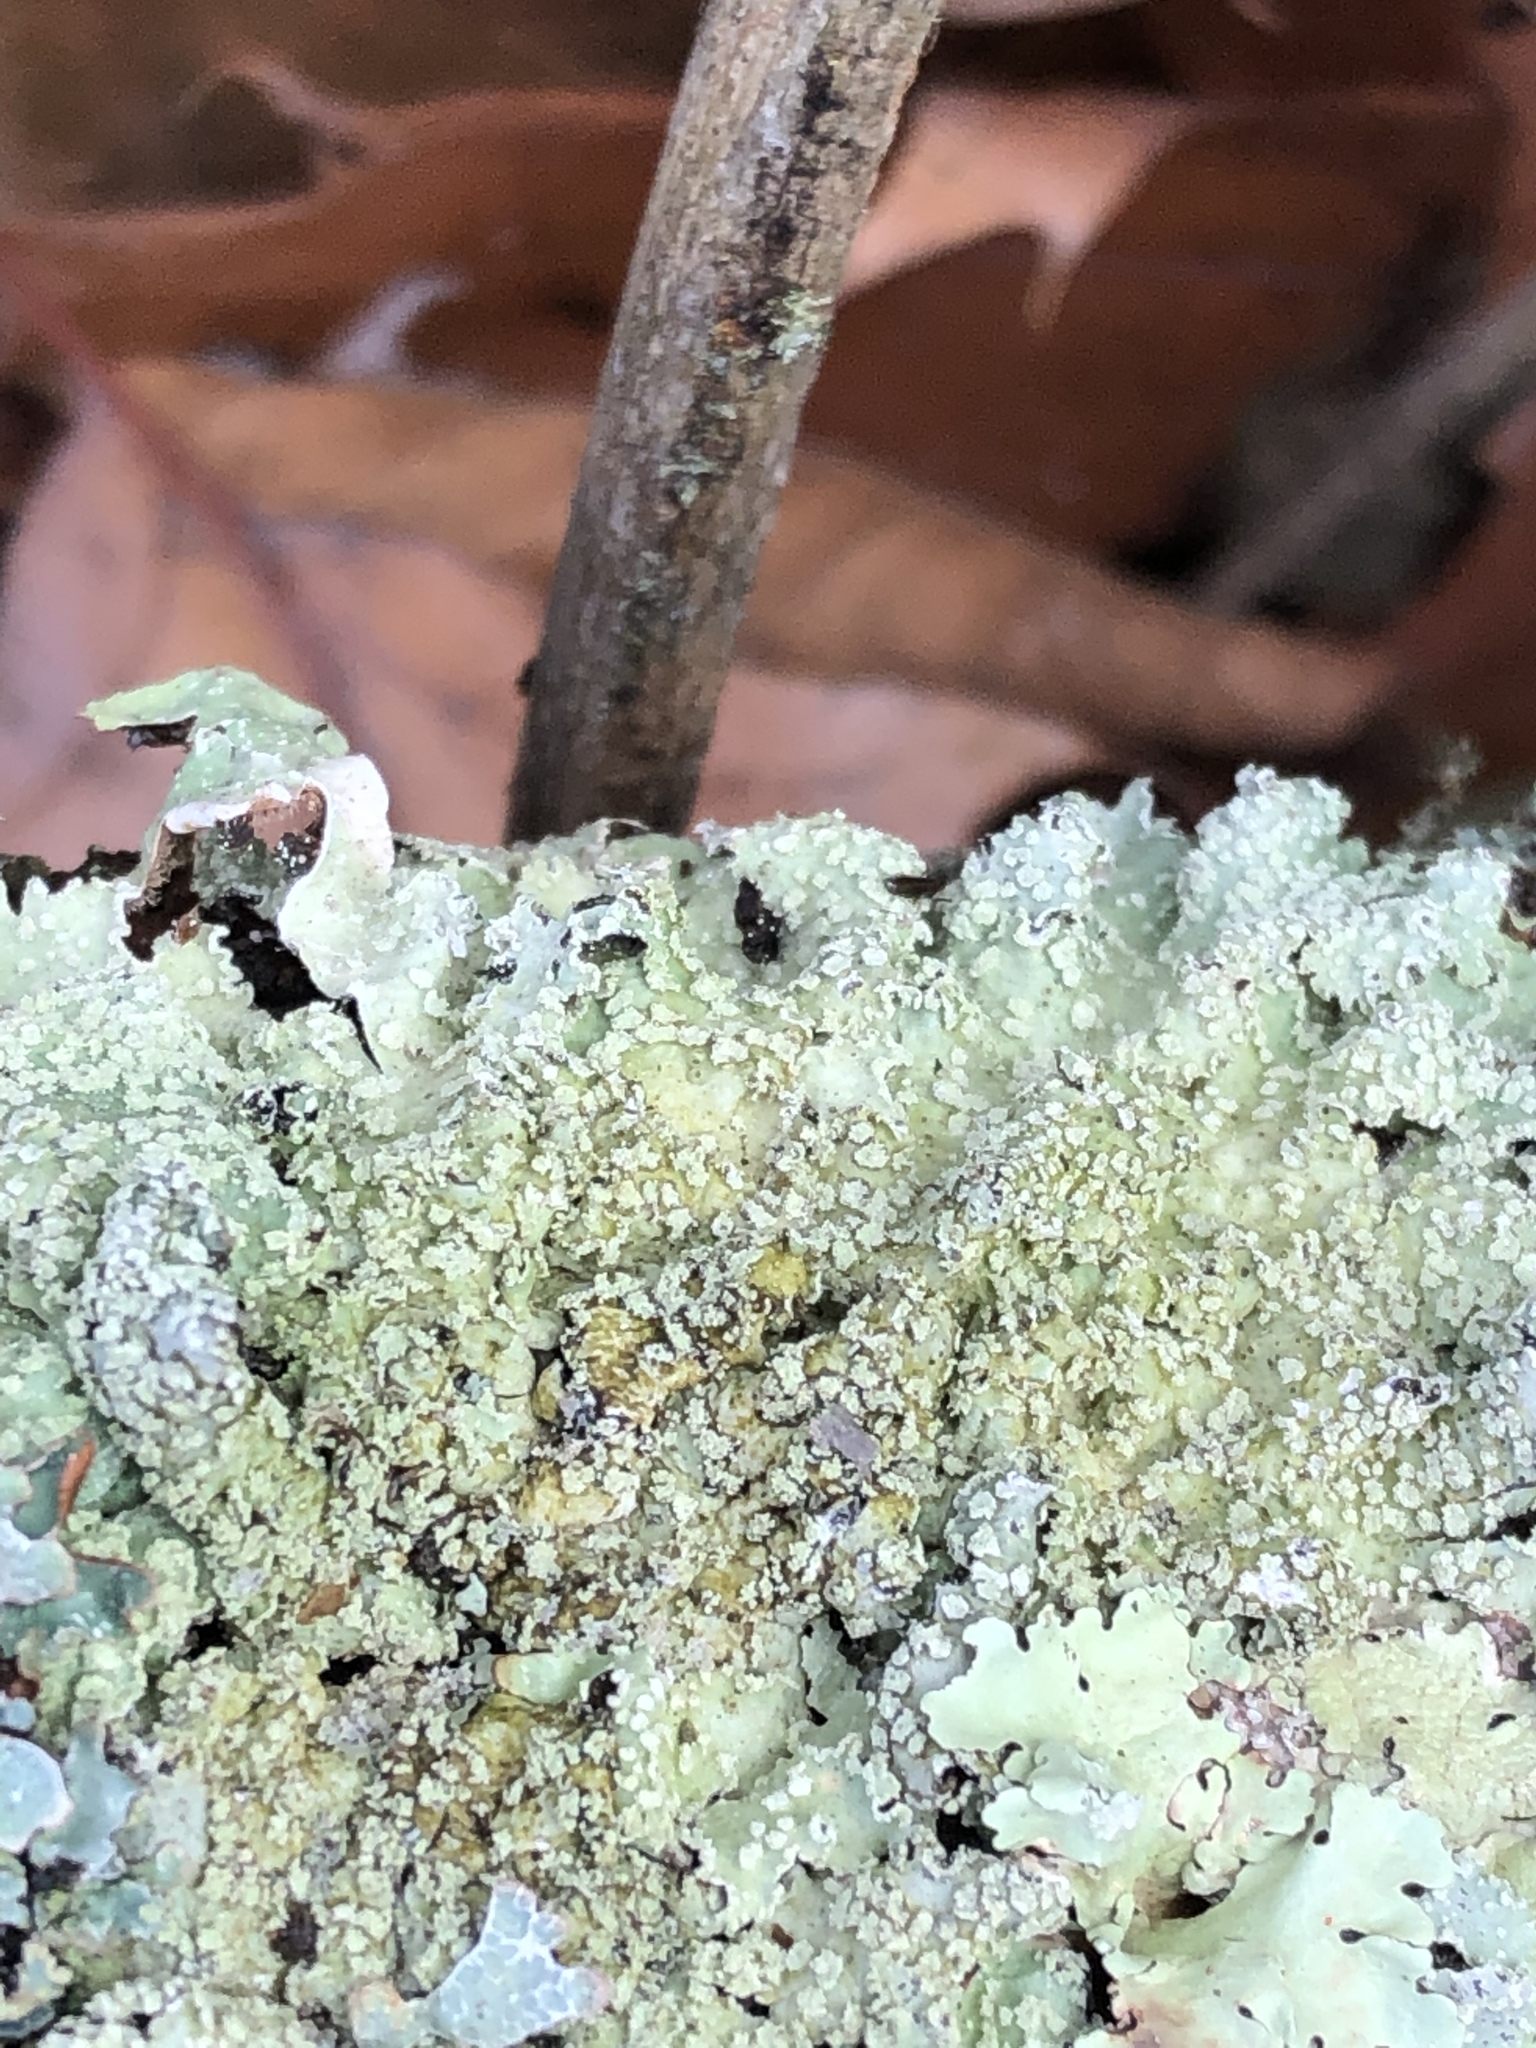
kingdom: Fungi
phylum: Ascomycota
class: Lecanoromycetes
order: Lecanorales
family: Parmeliaceae
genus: Flavoparmelia
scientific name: Flavoparmelia baltimorensis
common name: Rock greenshield
